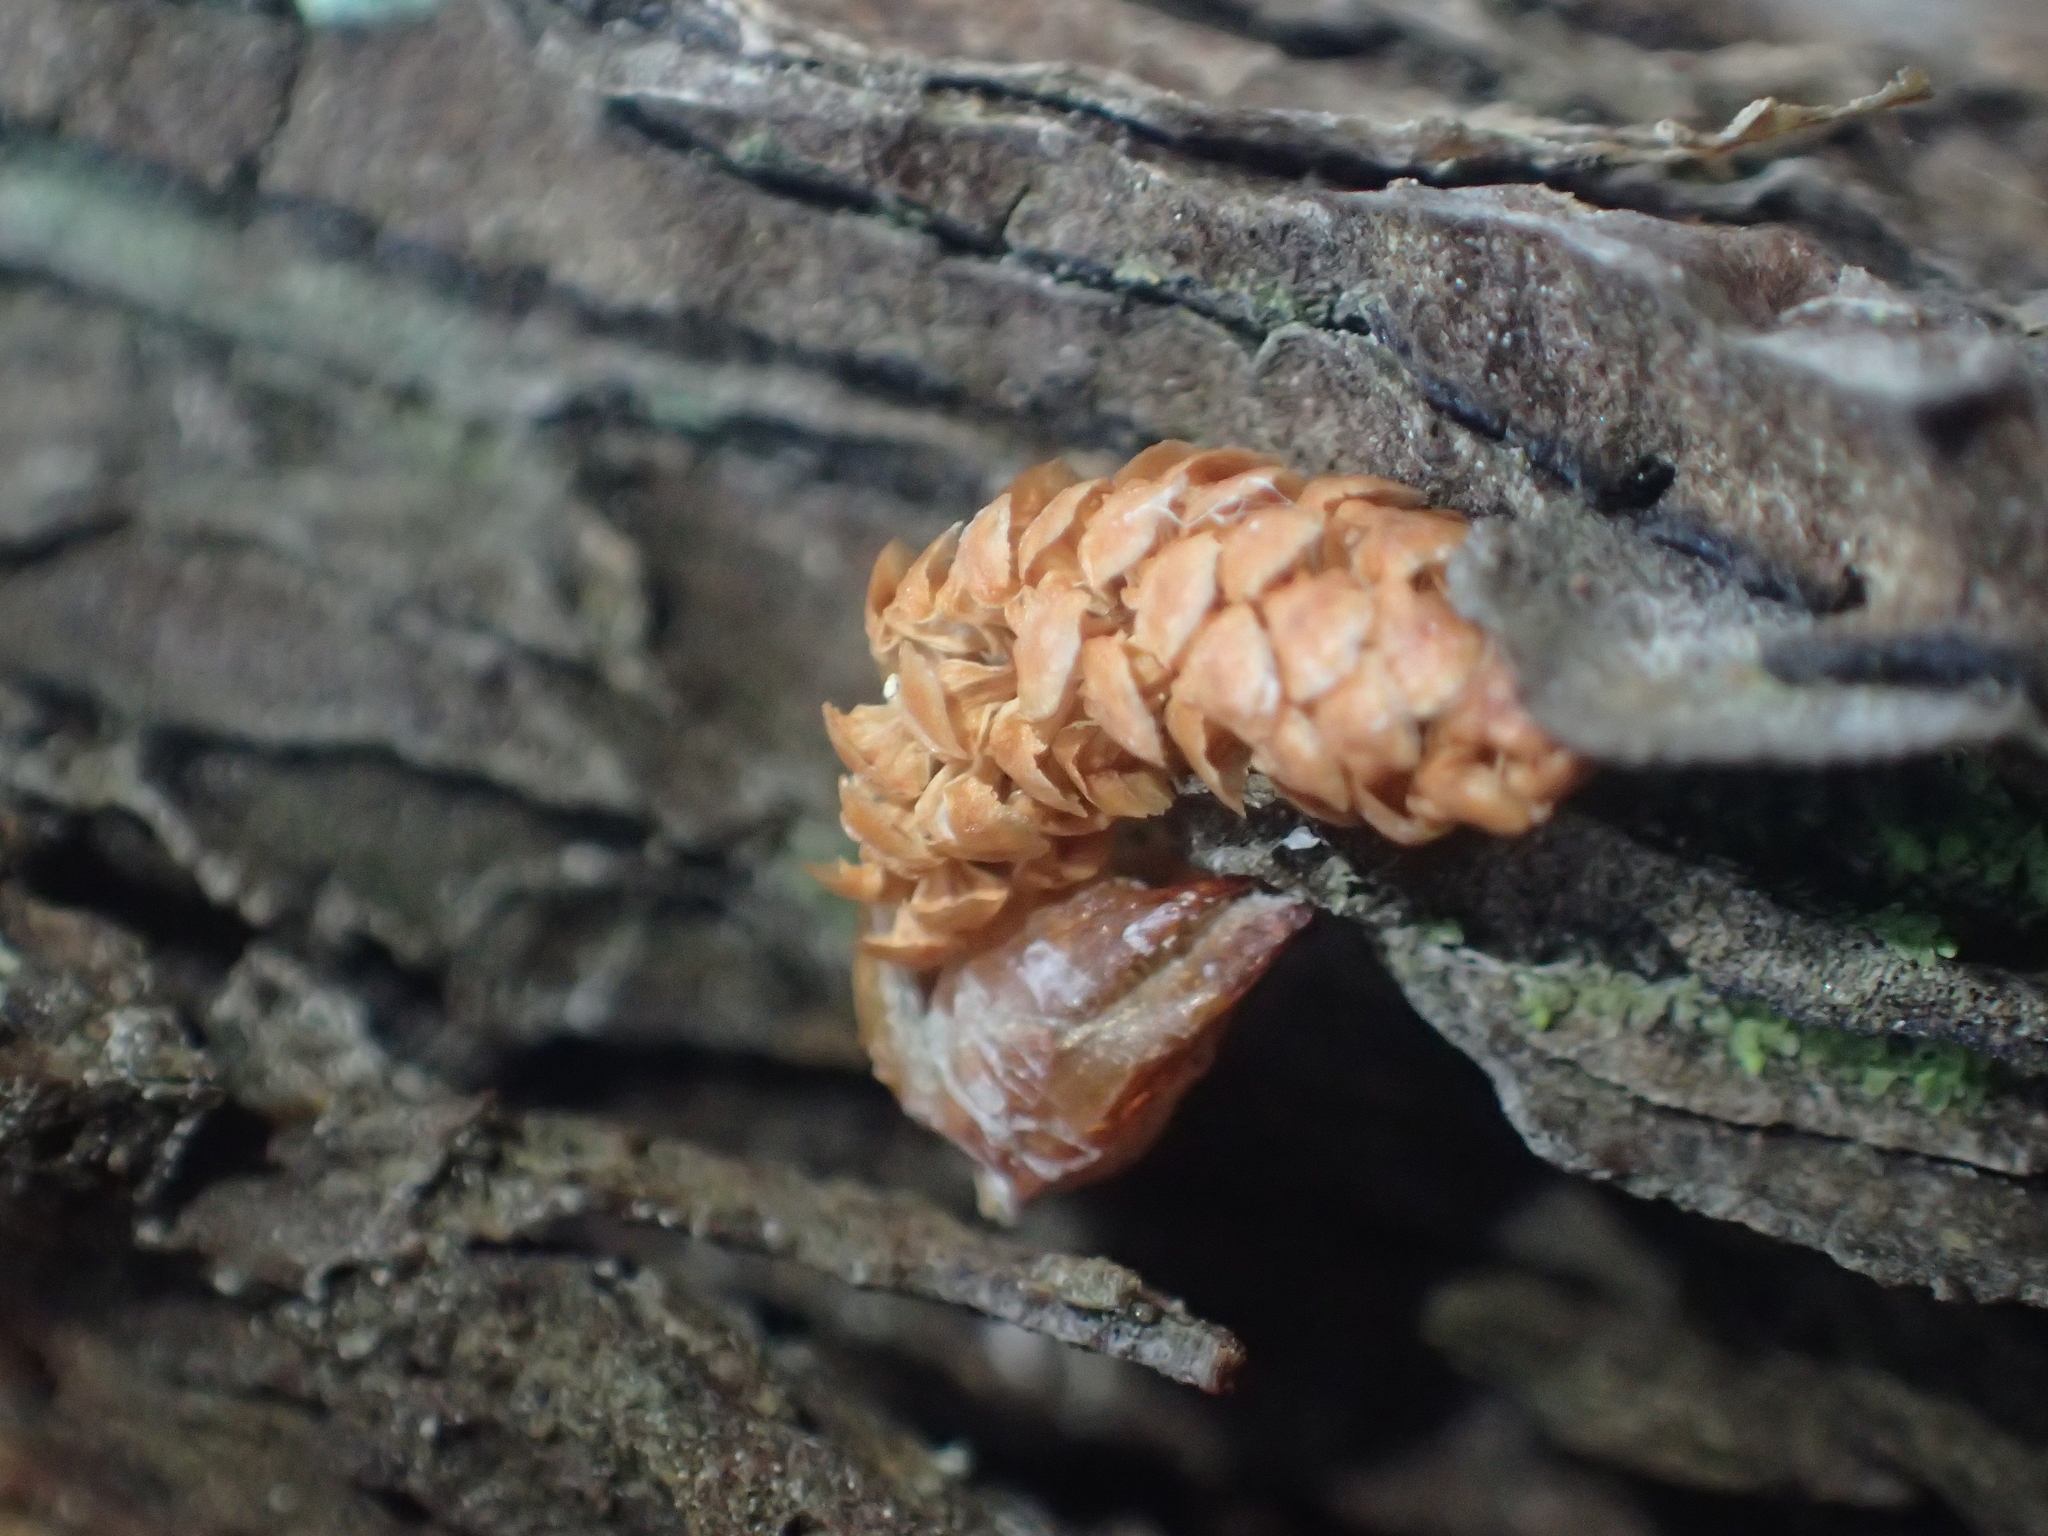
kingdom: Plantae
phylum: Tracheophyta
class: Pinopsida
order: Pinales
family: Pinaceae
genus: Pinus
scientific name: Pinus radiata
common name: Monterey pine
